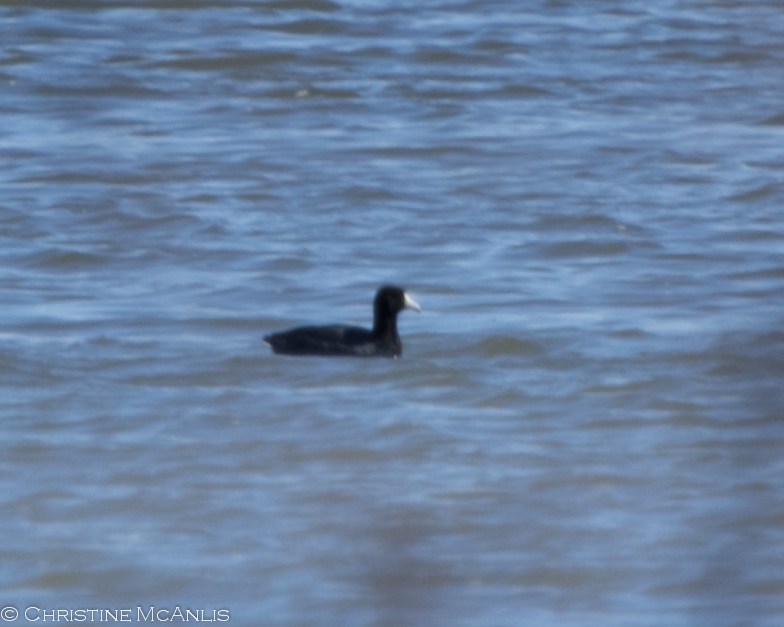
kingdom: Animalia
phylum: Chordata
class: Aves
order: Gruiformes
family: Rallidae
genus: Fulica
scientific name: Fulica americana
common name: American coot
